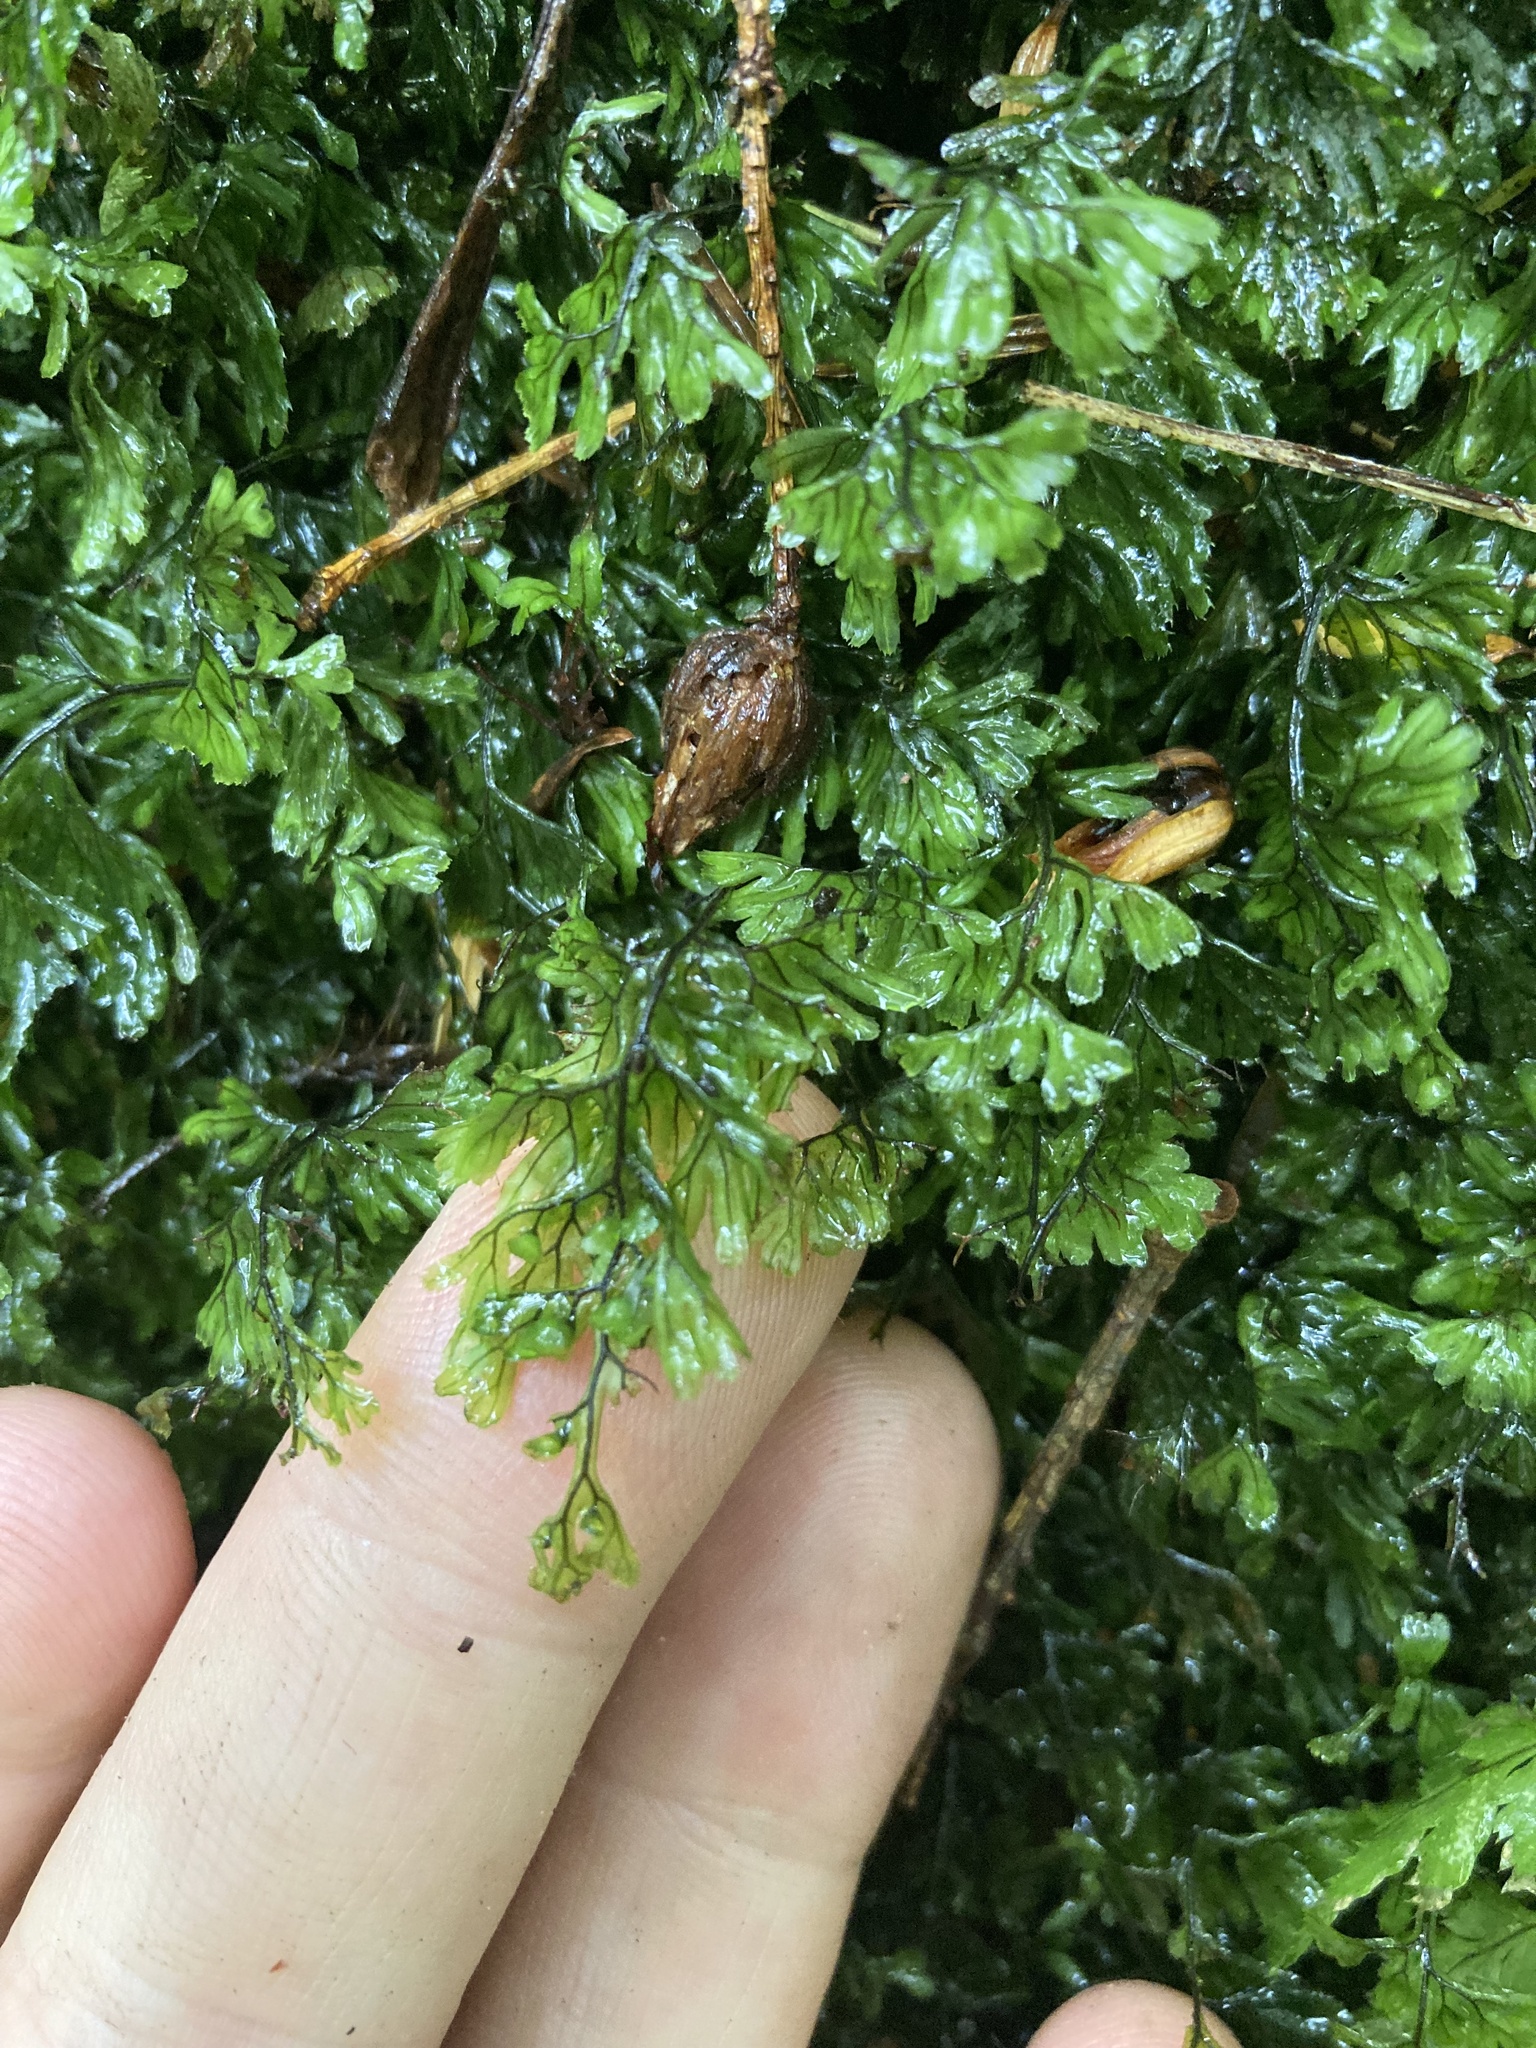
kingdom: Plantae
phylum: Tracheophyta
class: Polypodiopsida
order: Hymenophyllales
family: Hymenophyllaceae
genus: Hymenophyllum
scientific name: Hymenophyllum tunbrigense
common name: Tunbridge filmy fern
